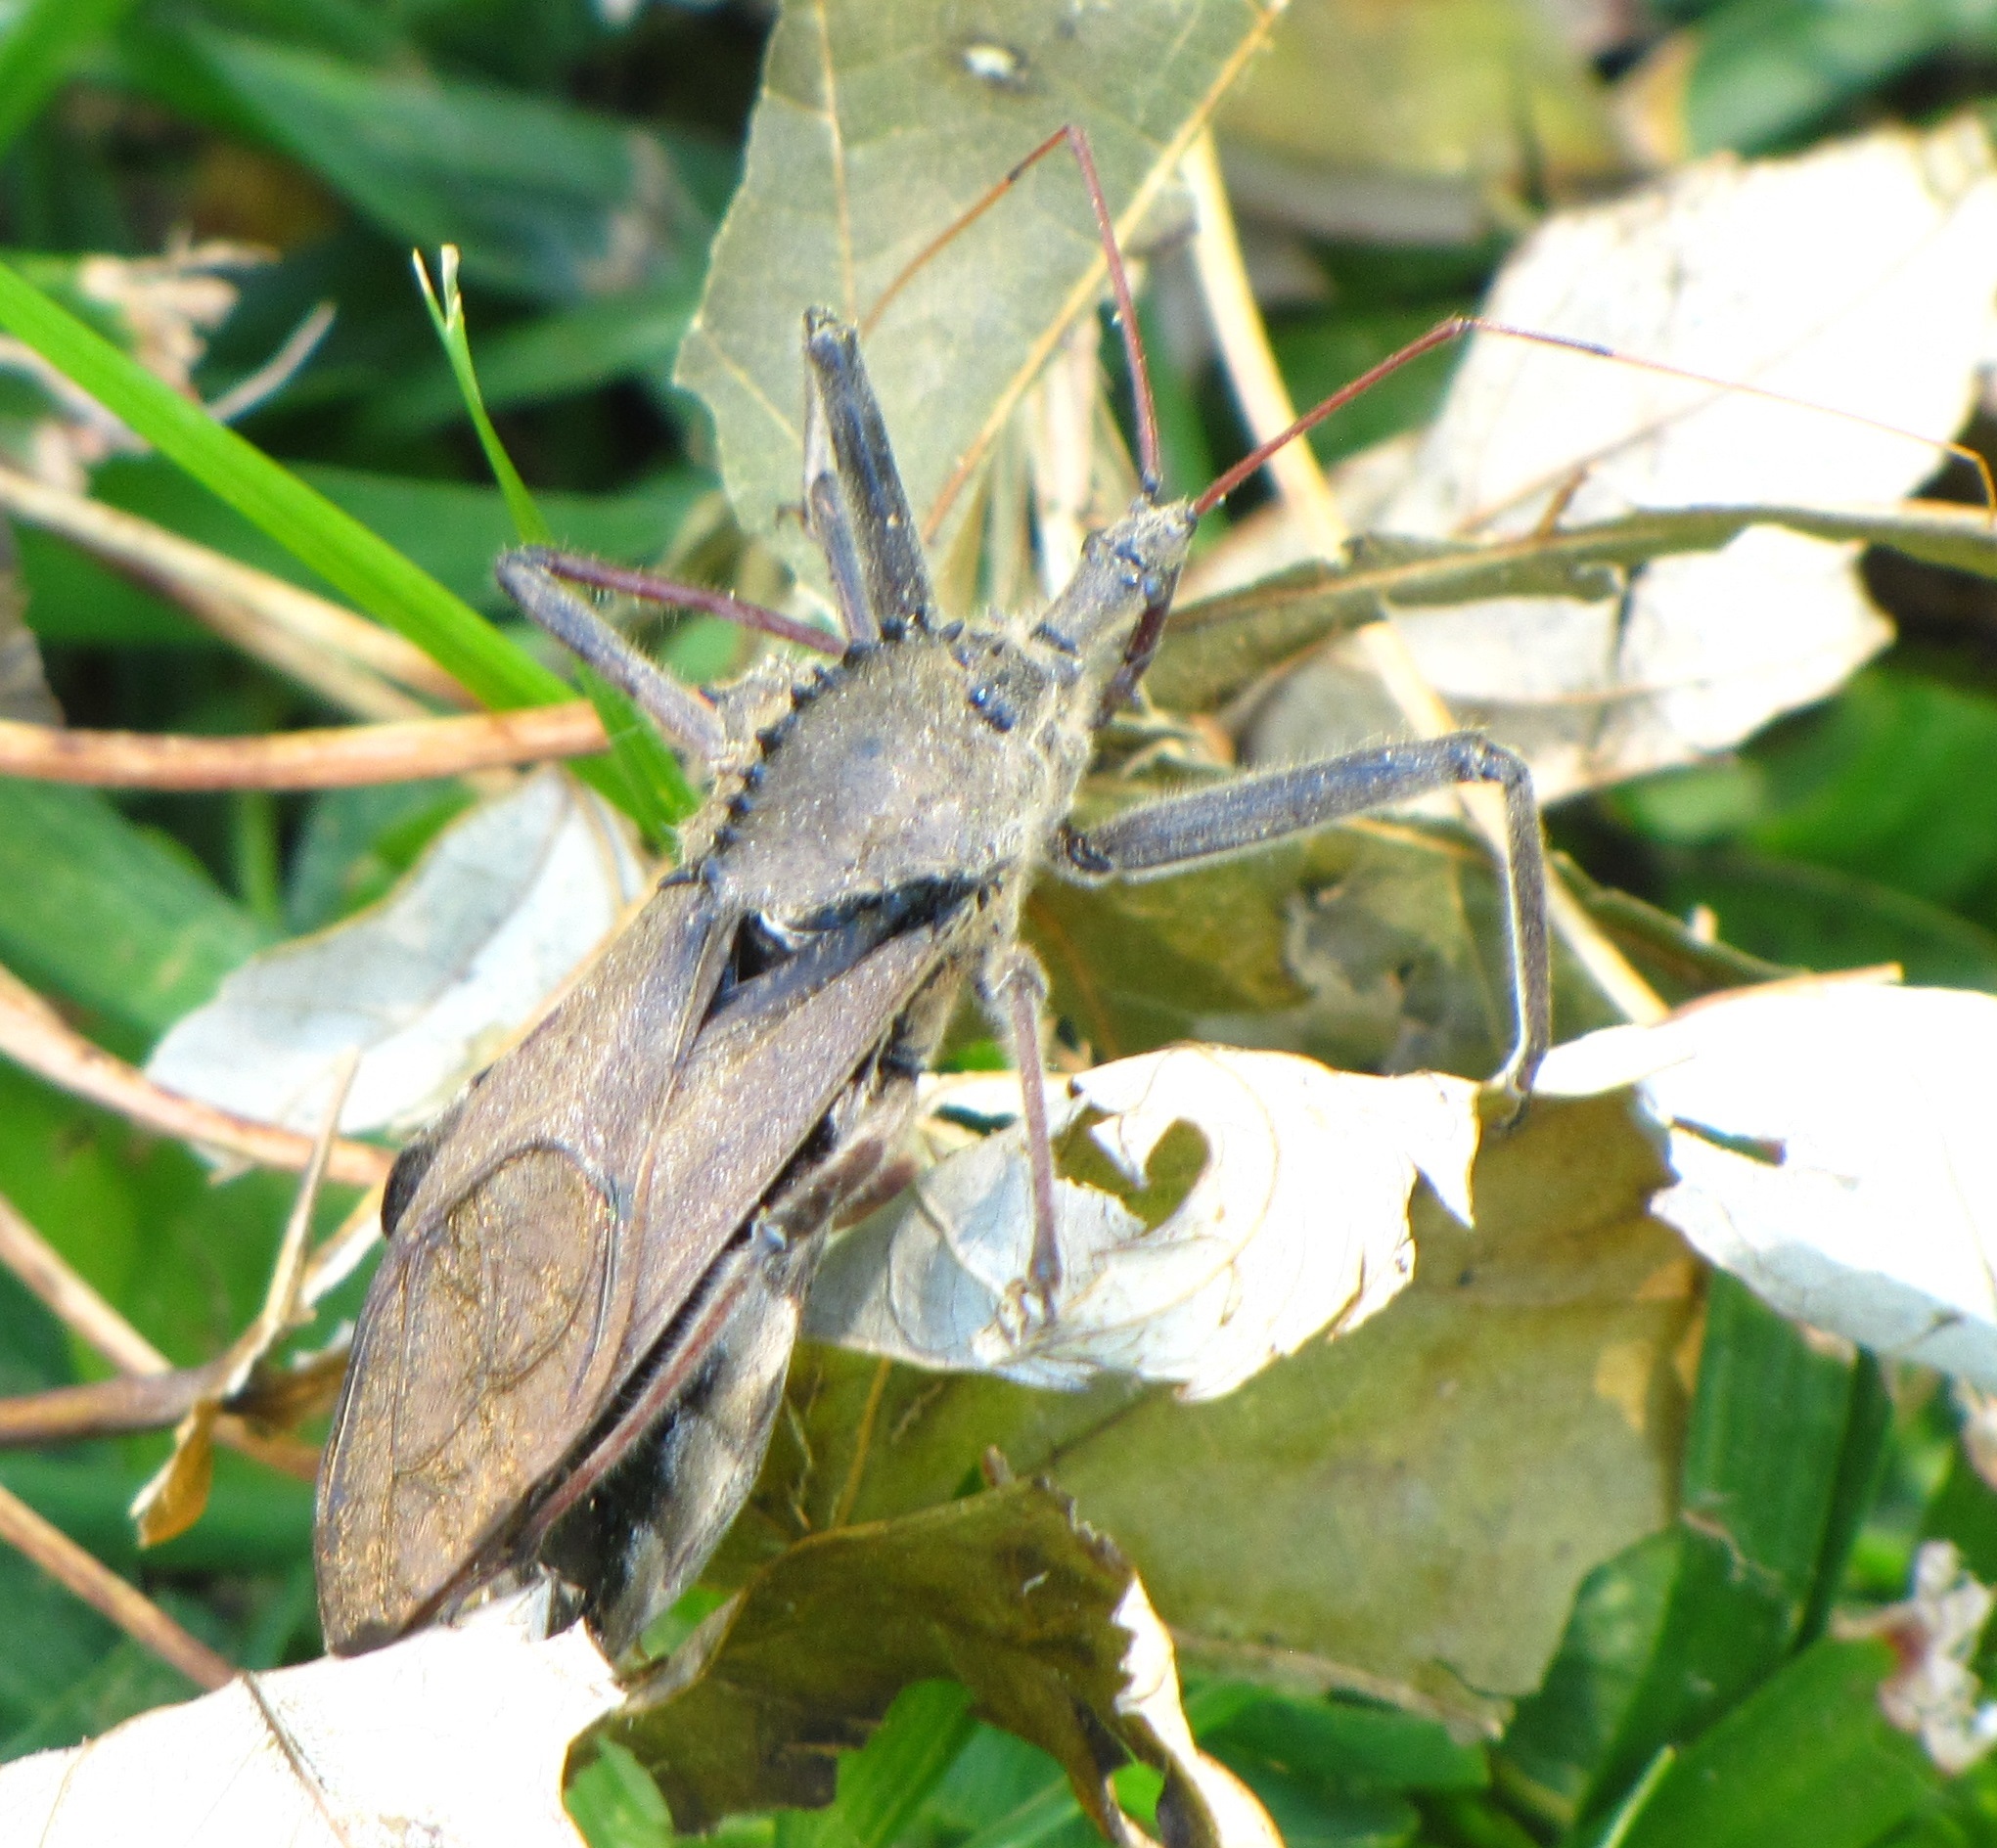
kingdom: Animalia
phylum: Arthropoda
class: Insecta
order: Hemiptera
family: Reduviidae
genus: Arilus
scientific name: Arilus cristatus
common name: North american wheel bug
